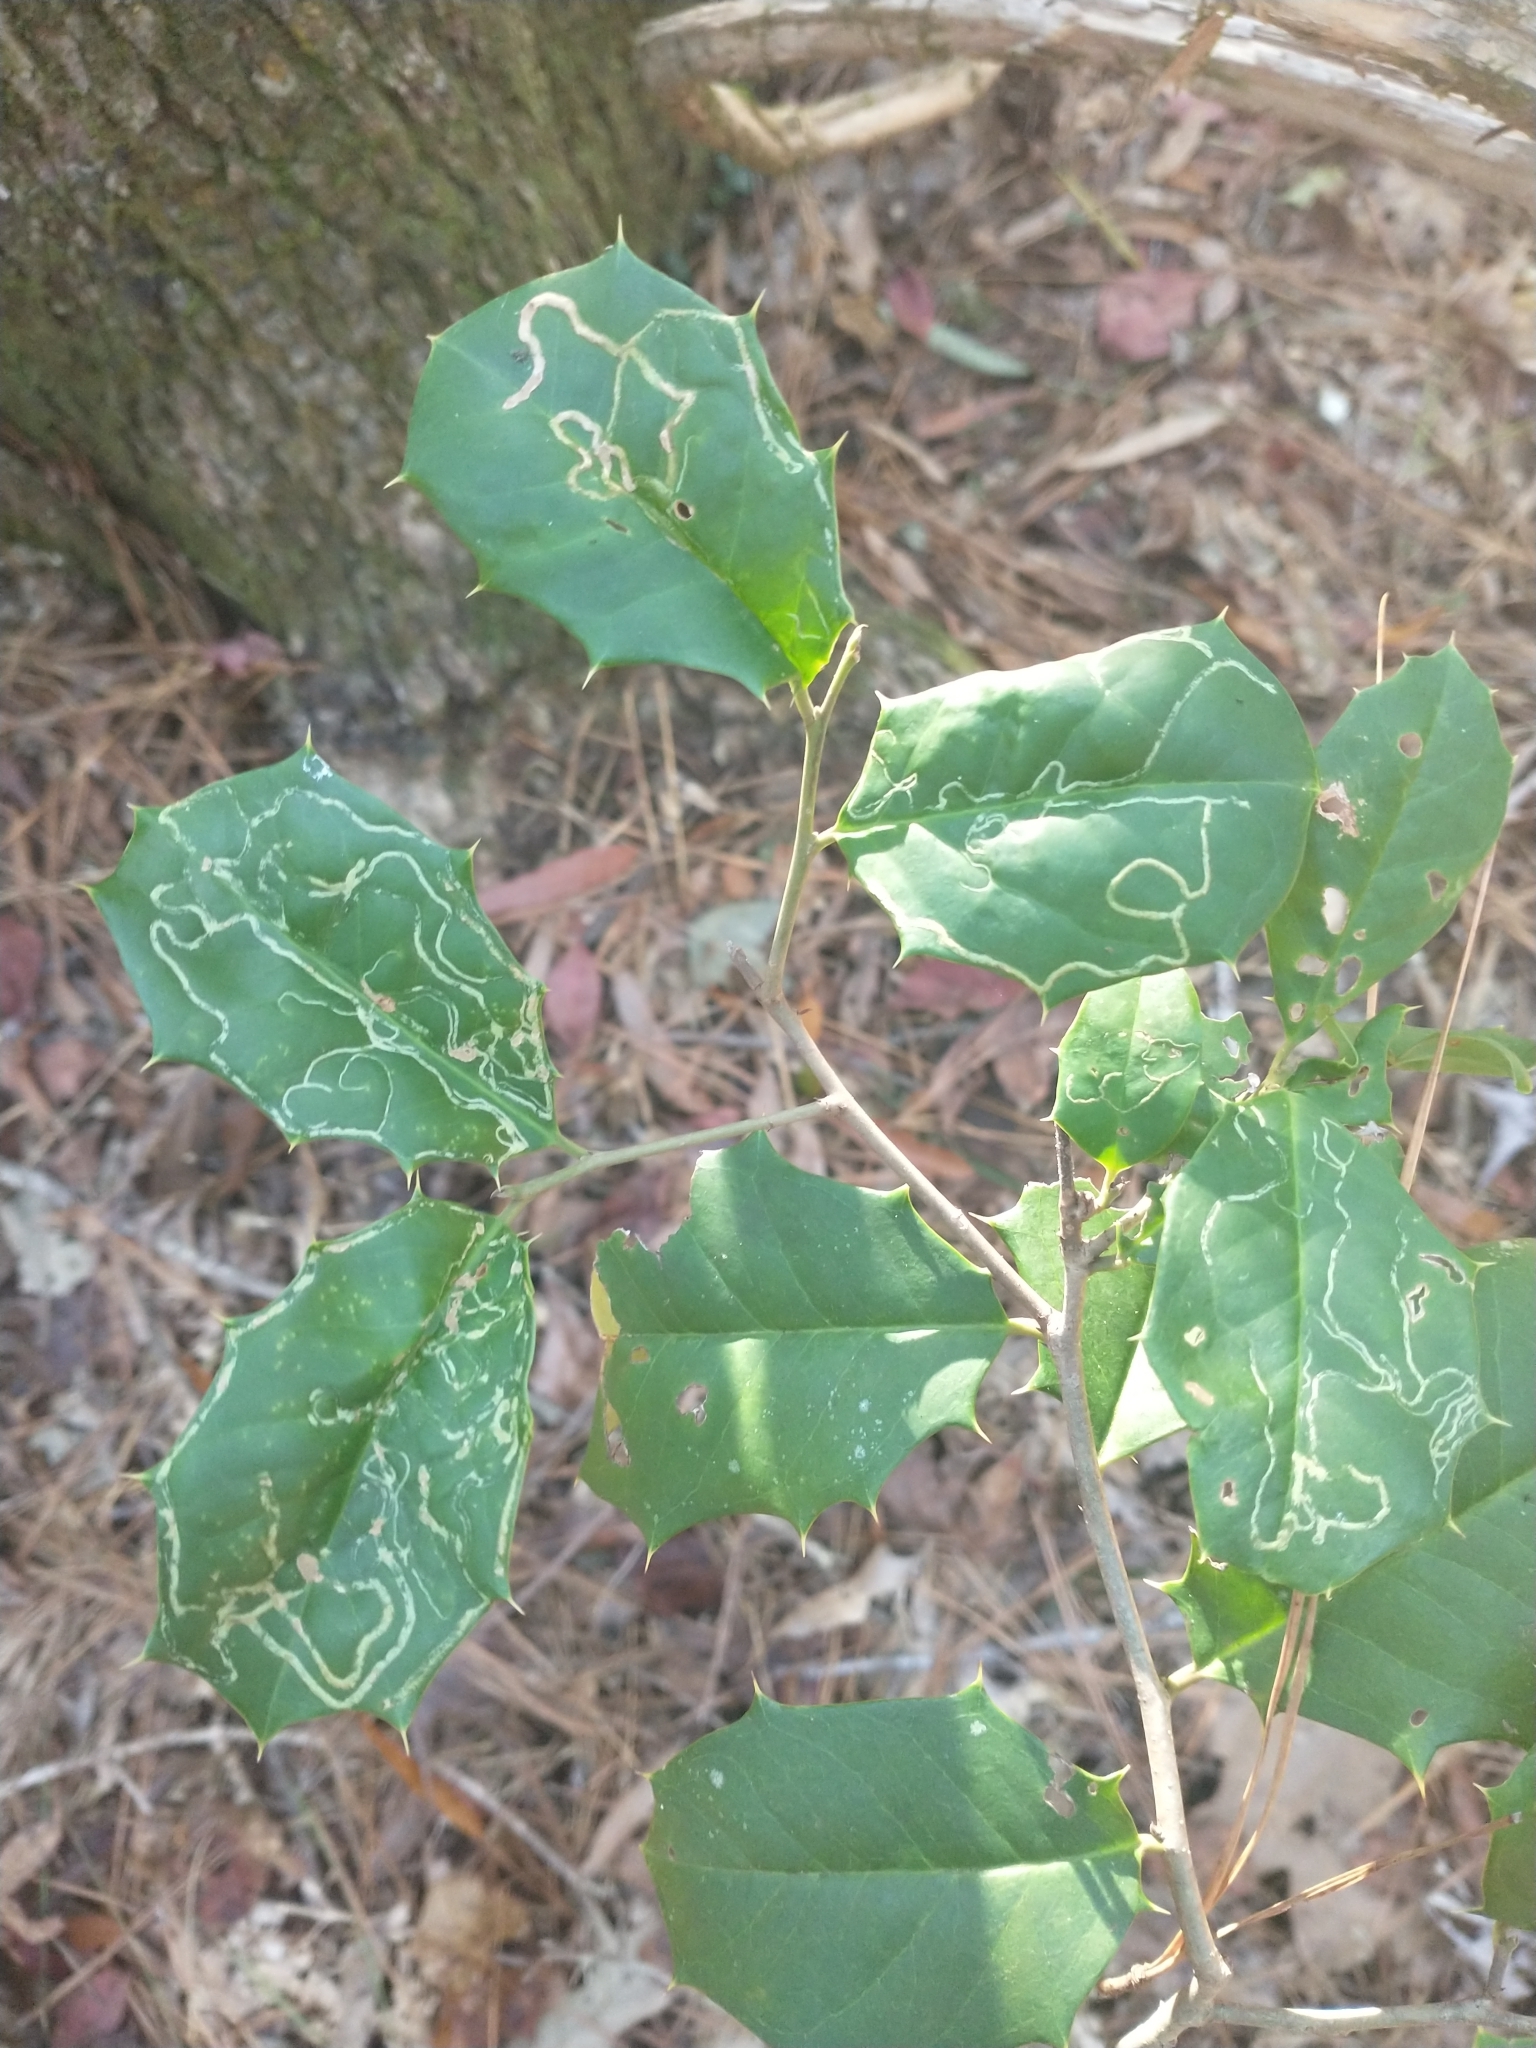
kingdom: Plantae
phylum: Tracheophyta
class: Magnoliopsida
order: Aquifoliales
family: Aquifoliaceae
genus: Ilex
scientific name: Ilex opaca
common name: American holly
